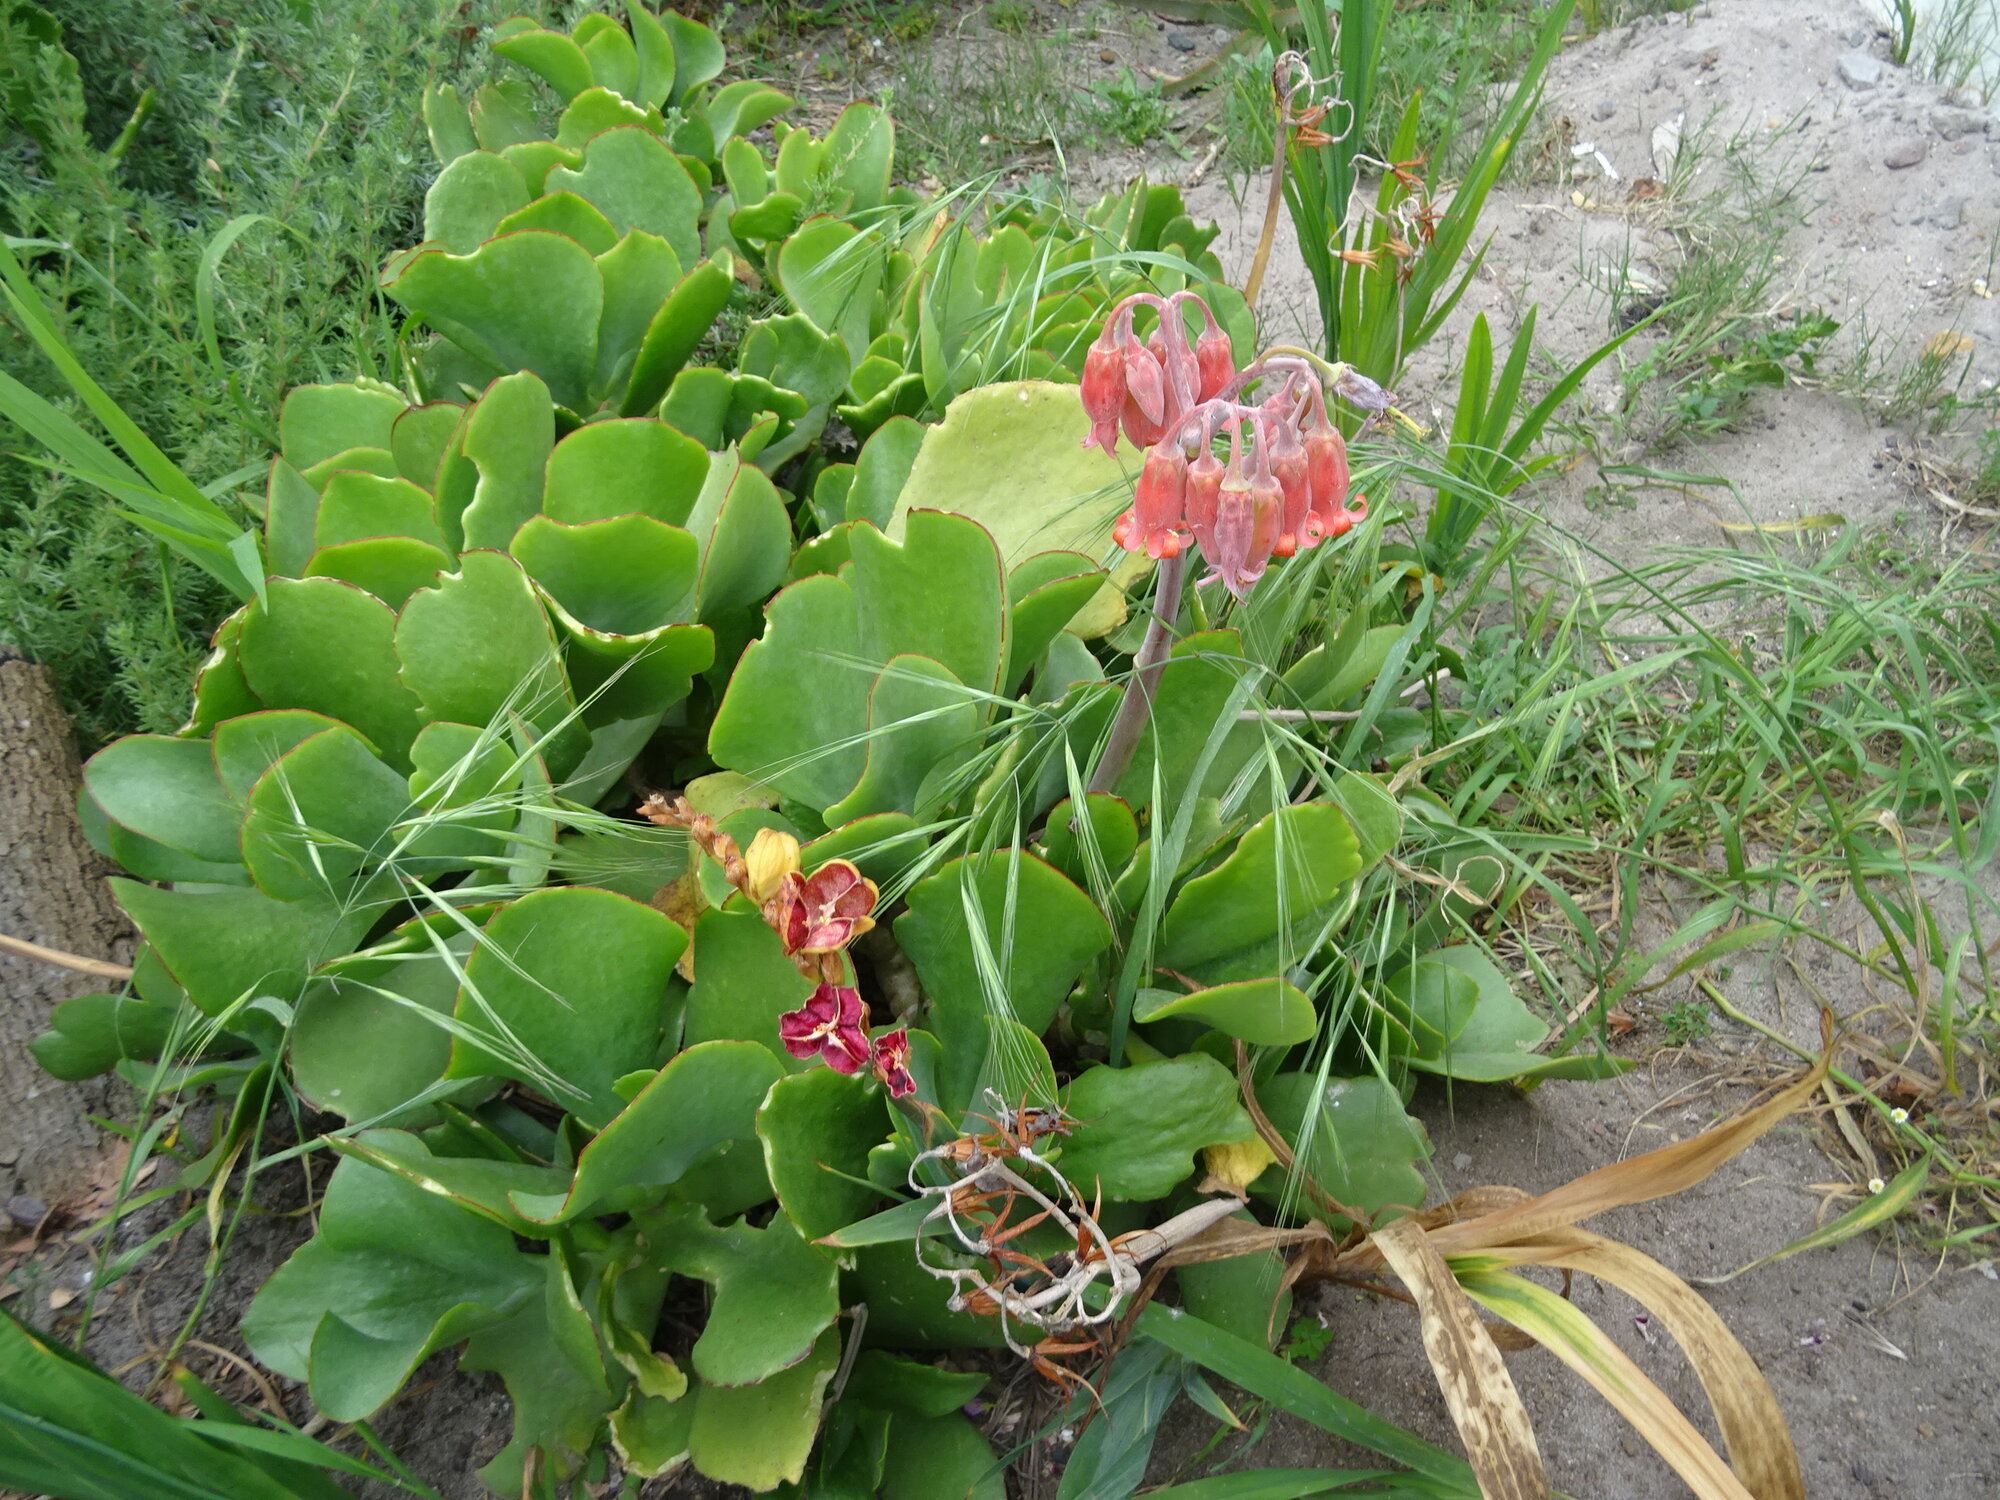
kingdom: Plantae
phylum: Tracheophyta
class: Magnoliopsida
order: Saxifragales
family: Crassulaceae
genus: Cotyledon
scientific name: Cotyledon orbiculata
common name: Pig's ear
